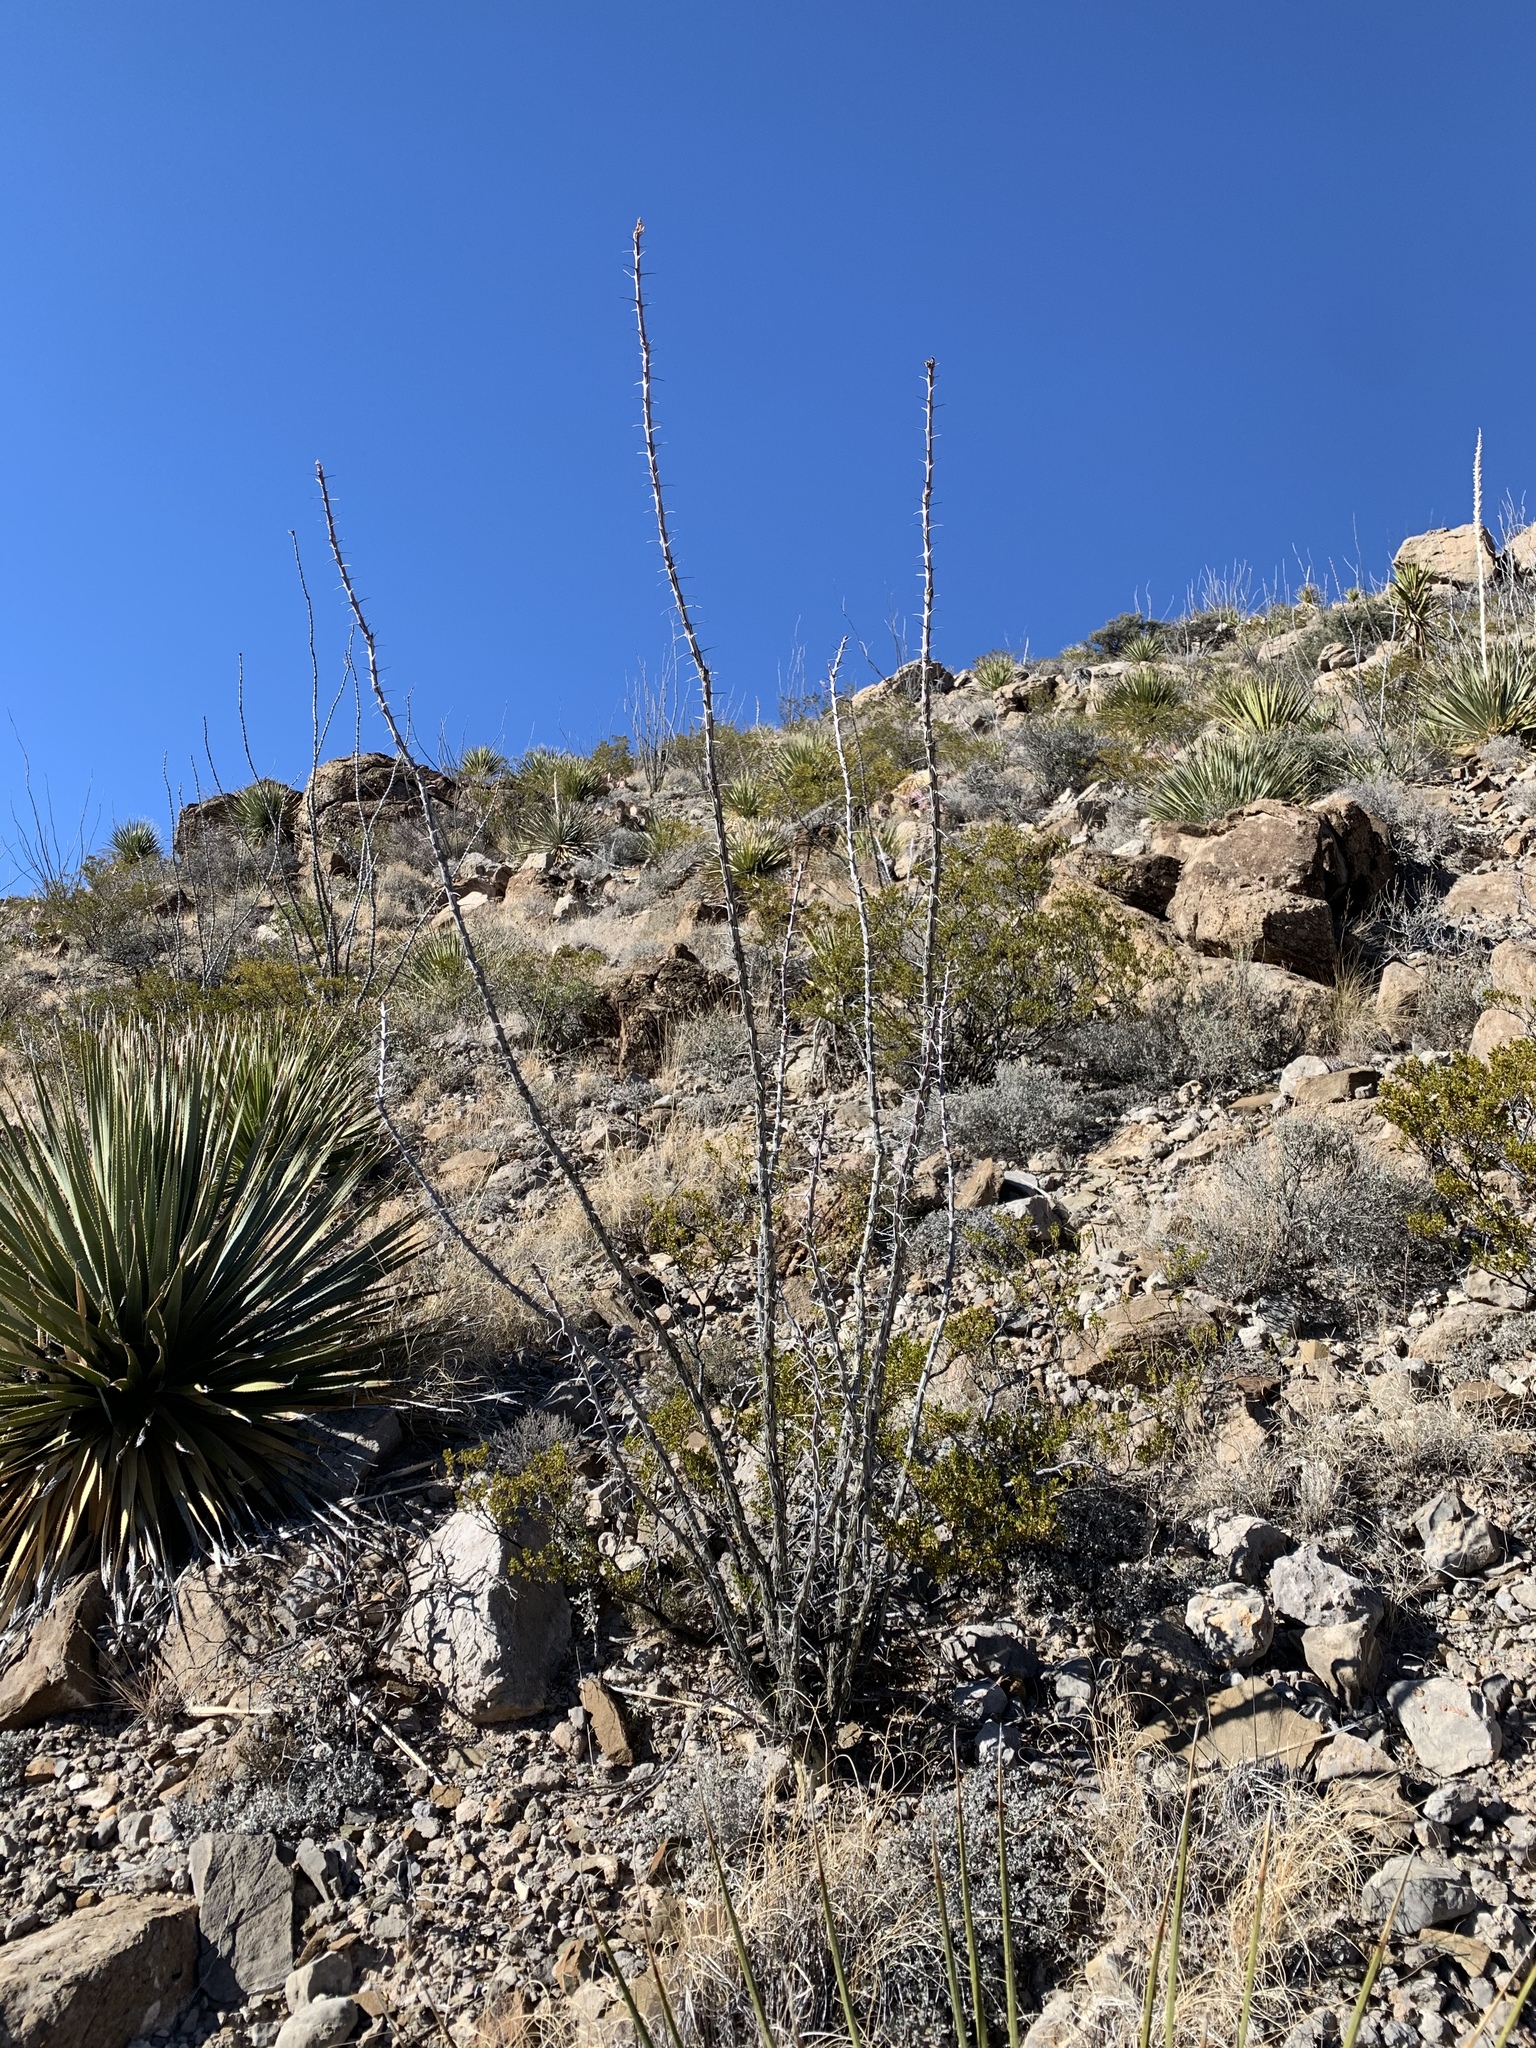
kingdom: Plantae
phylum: Tracheophyta
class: Magnoliopsida
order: Ericales
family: Fouquieriaceae
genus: Fouquieria
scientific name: Fouquieria splendens
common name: Vine-cactus
